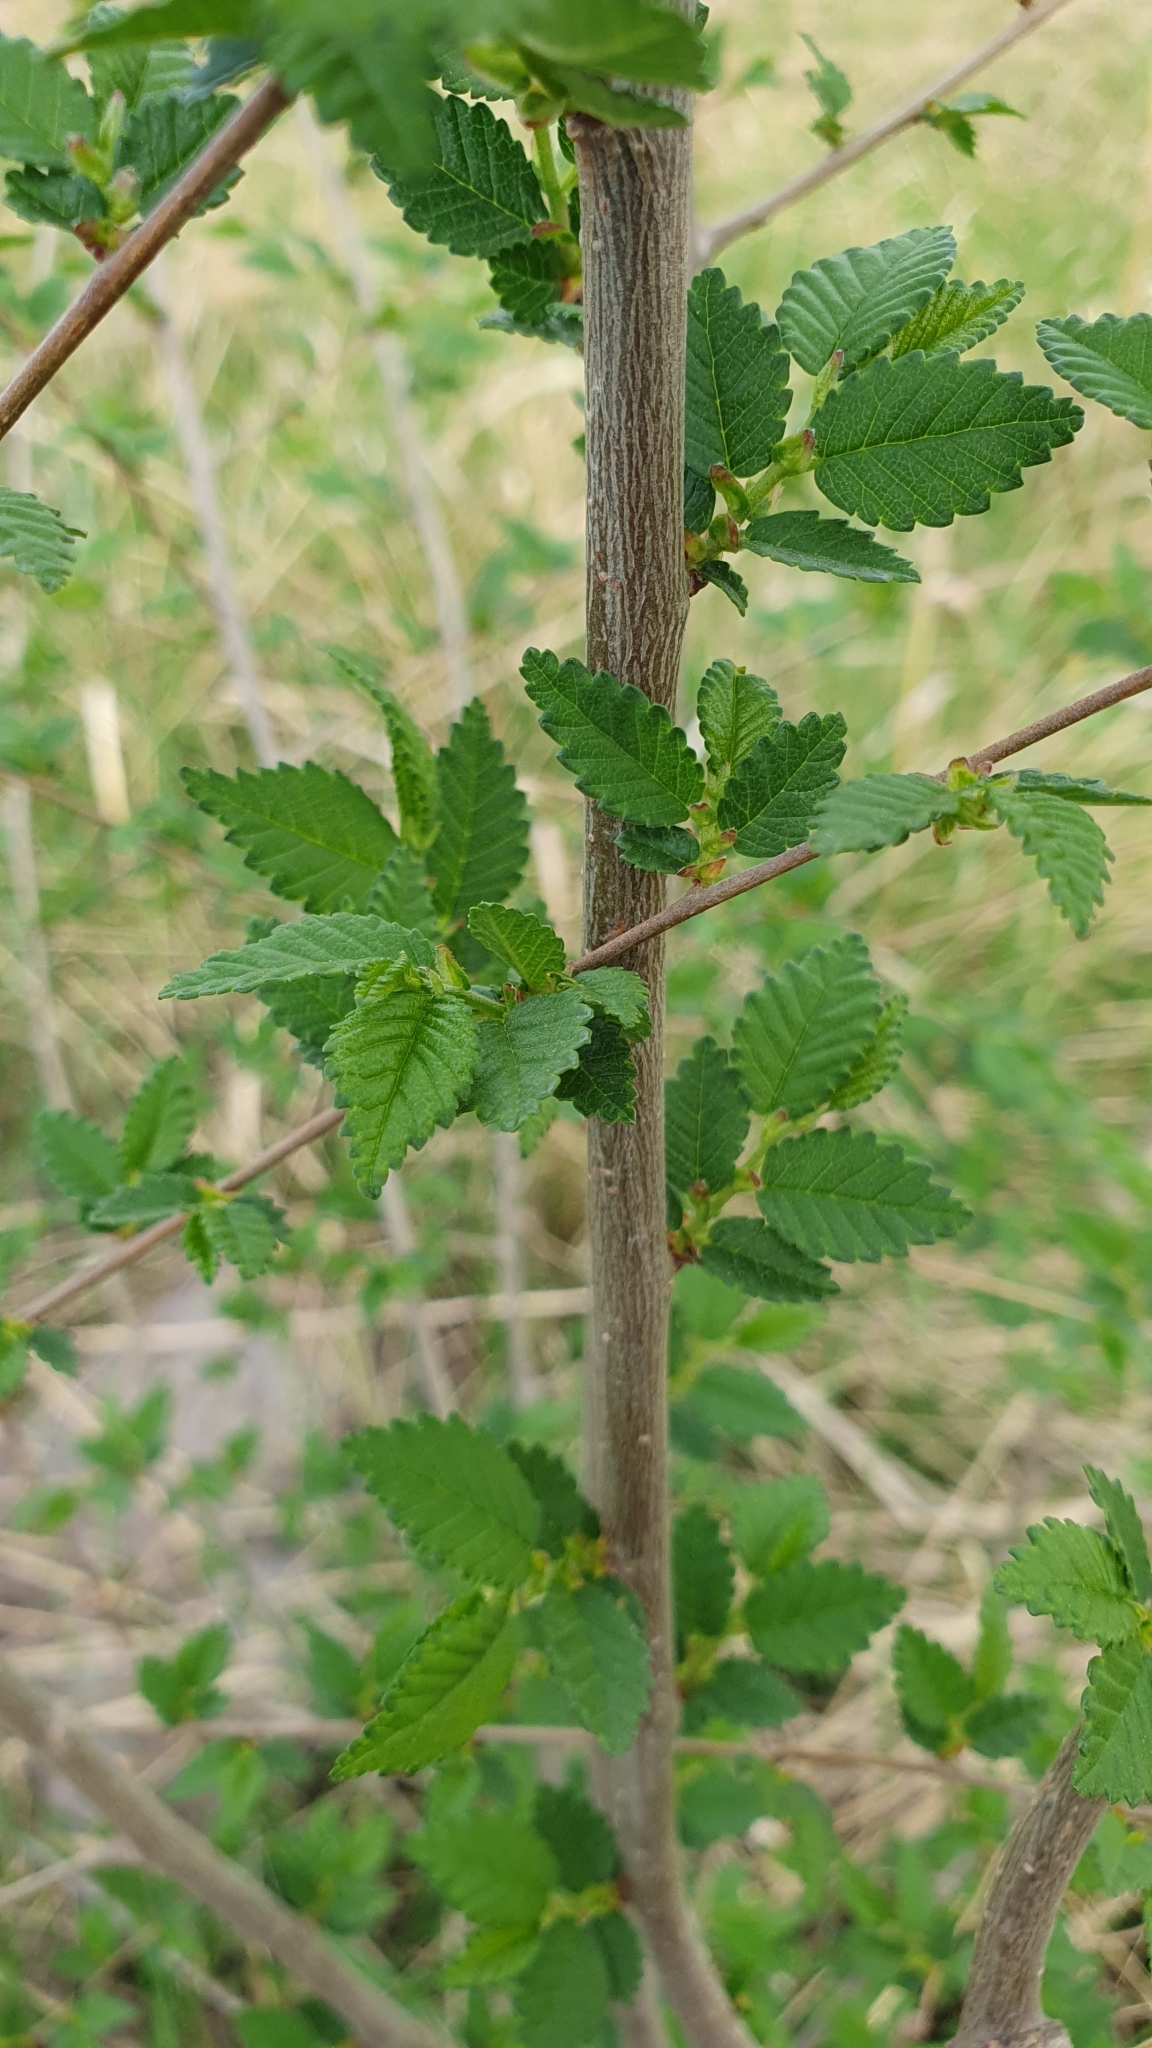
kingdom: Plantae
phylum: Tracheophyta
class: Magnoliopsida
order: Rosales
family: Ulmaceae
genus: Ulmus
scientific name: Ulmus pumila
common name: Siberian elm
